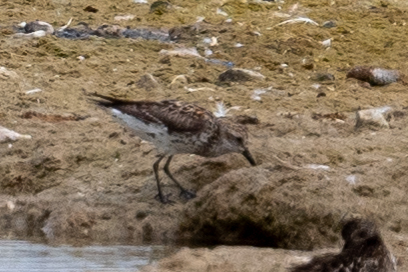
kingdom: Animalia
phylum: Chordata
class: Aves
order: Charadriiformes
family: Scolopacidae
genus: Calidris
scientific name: Calidris mauri
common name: Western sandpiper
